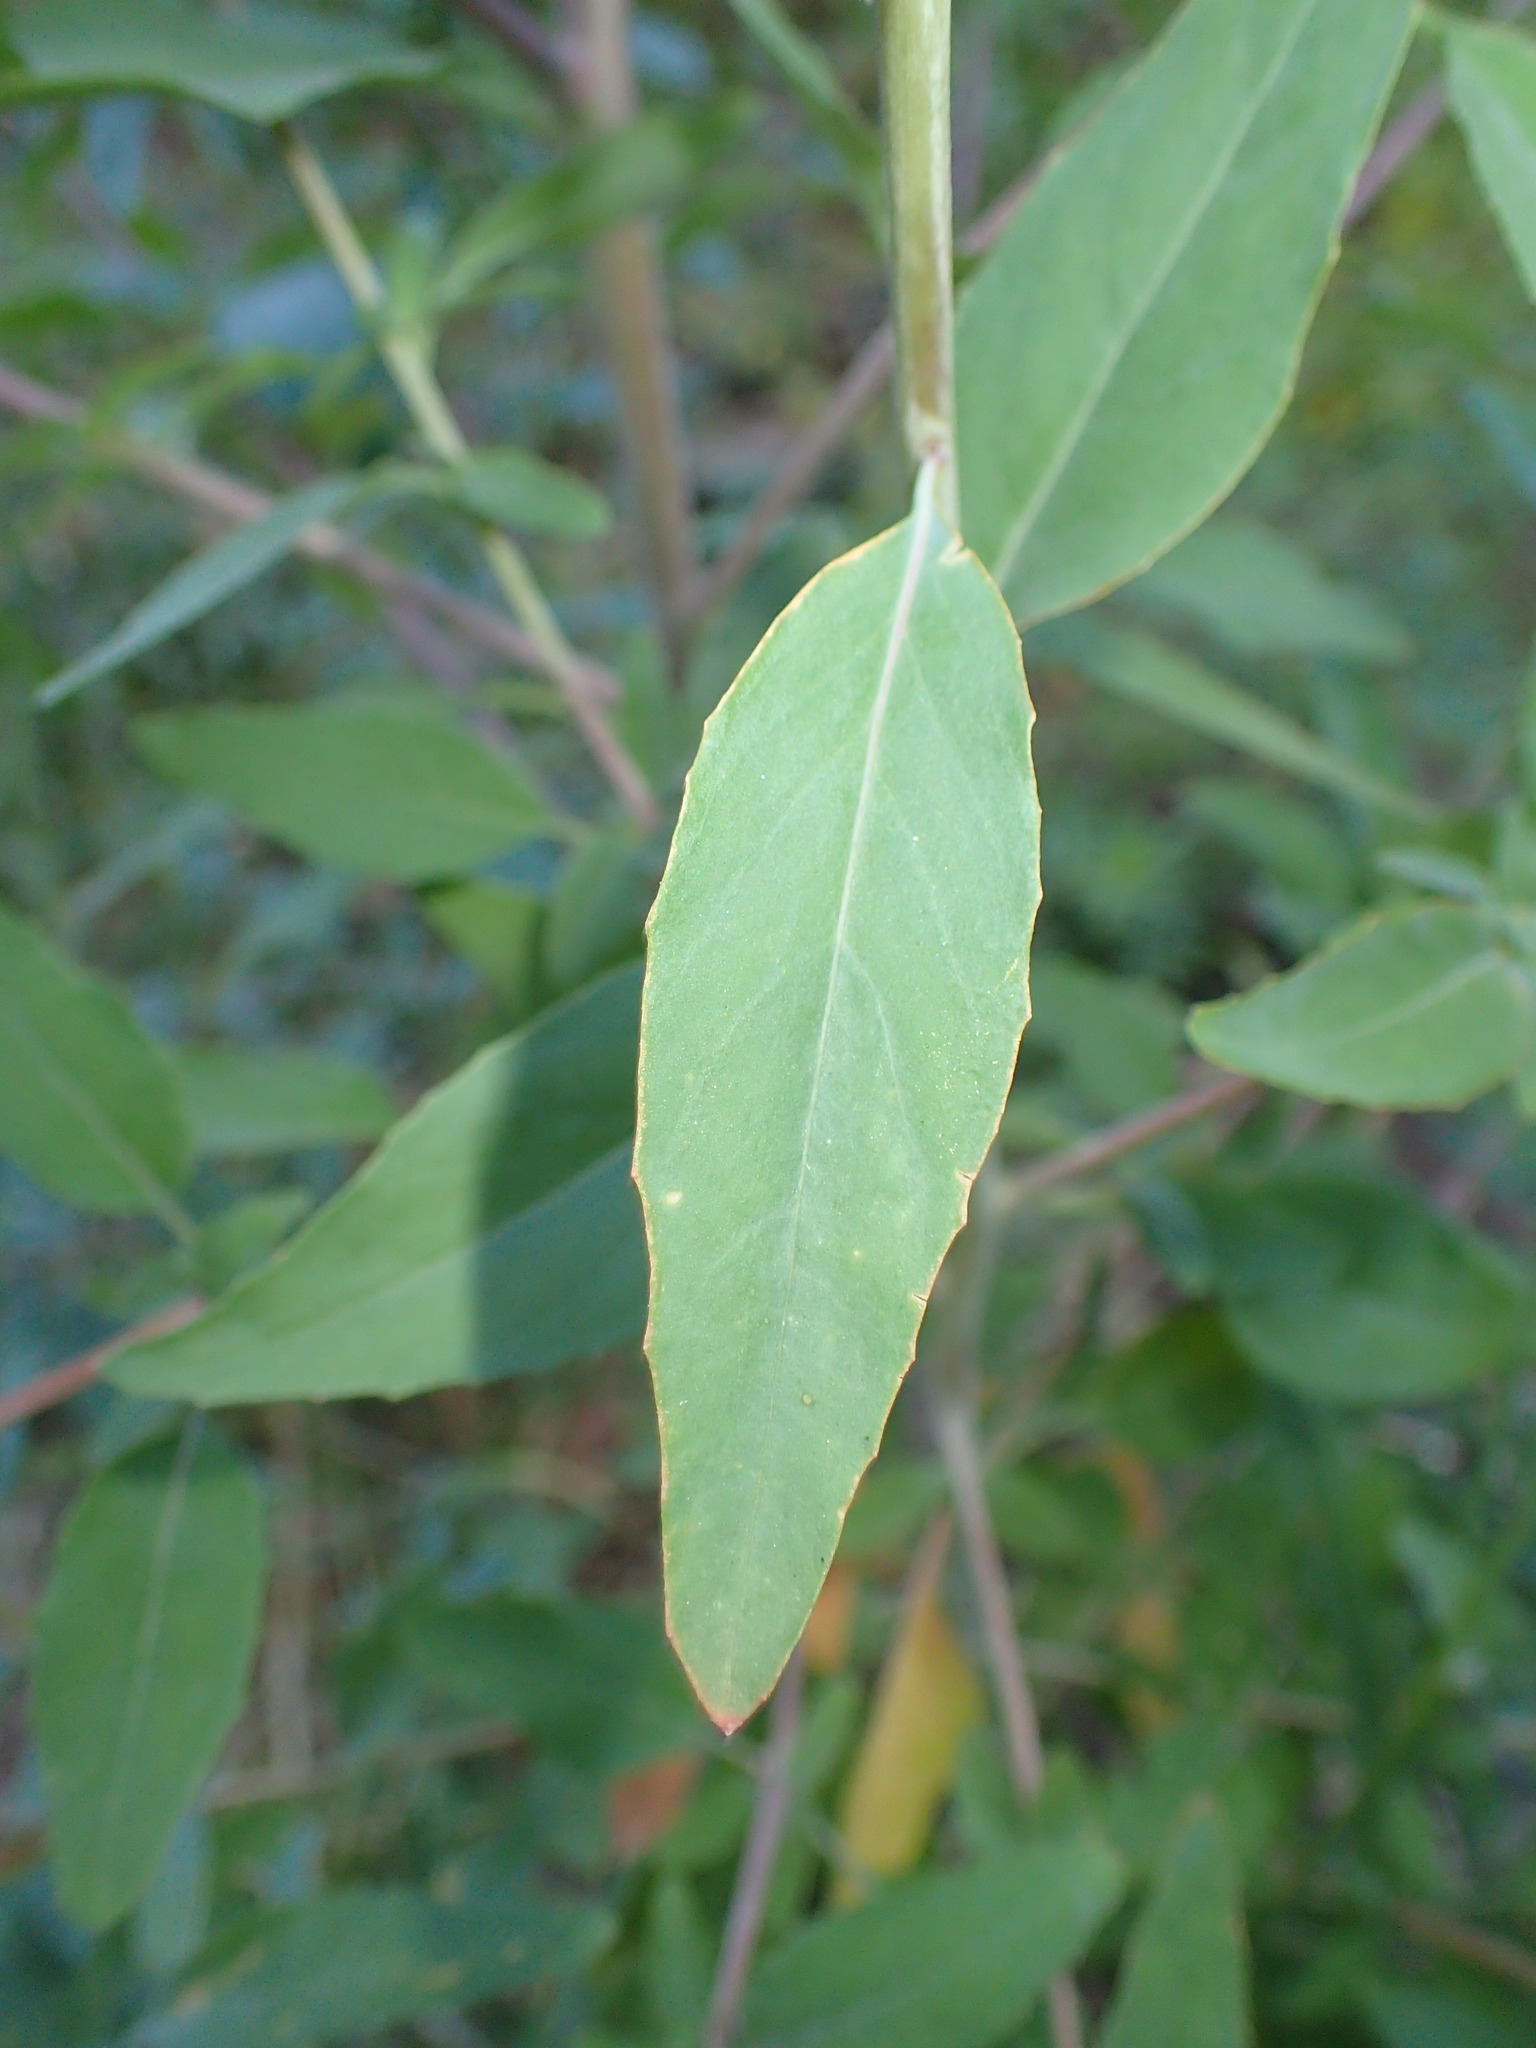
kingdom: Plantae
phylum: Tracheophyta
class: Magnoliopsida
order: Myrtales
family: Onagraceae
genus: Clarkia
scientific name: Clarkia unguiculata
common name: Clarkia
